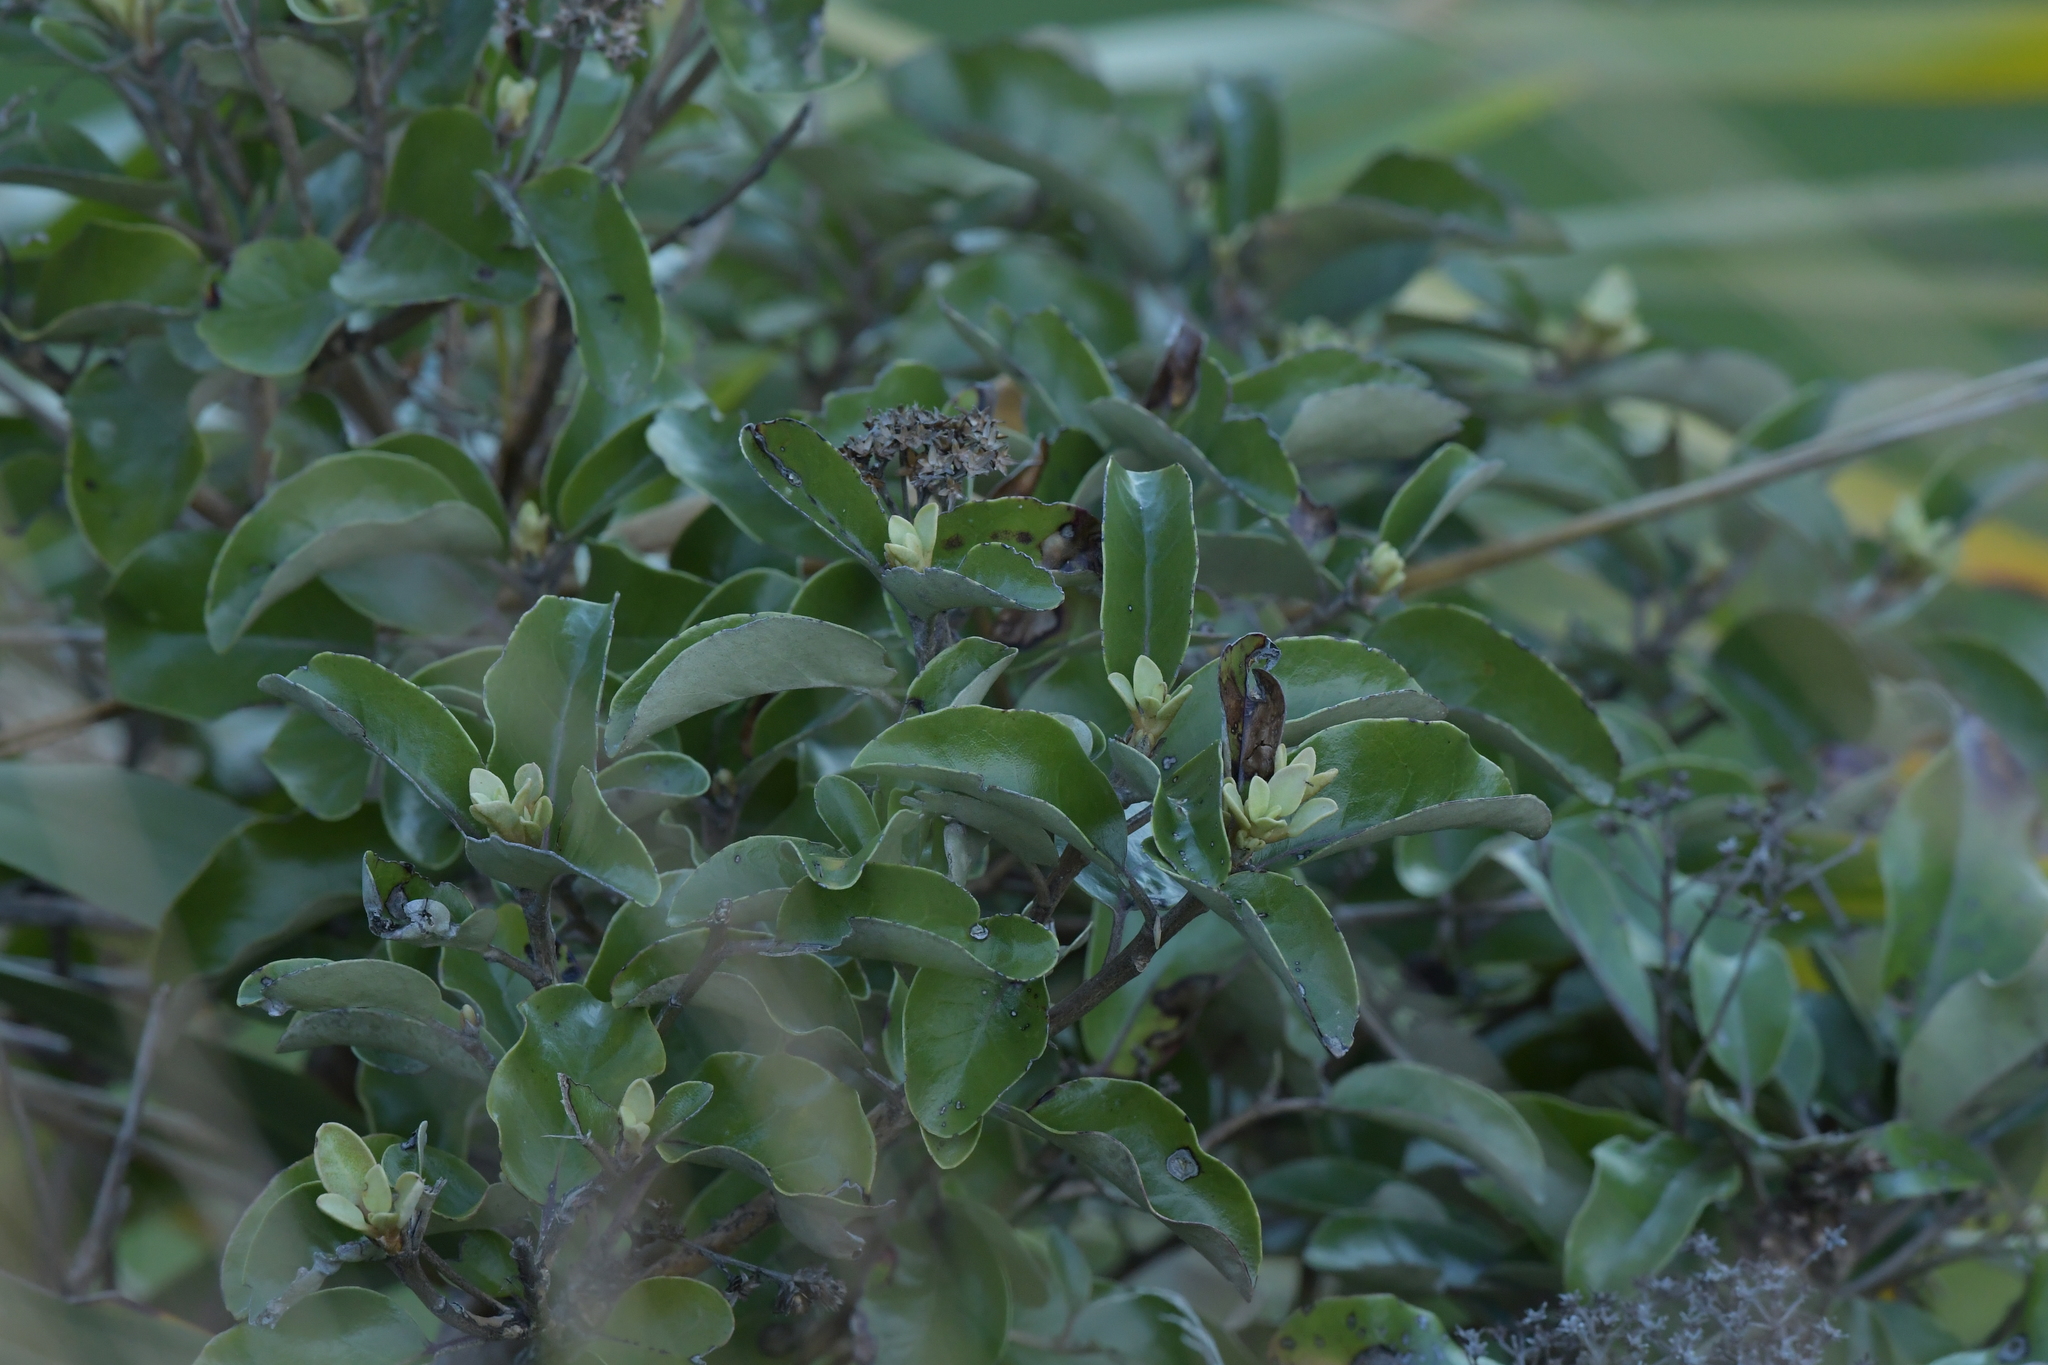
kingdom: Plantae
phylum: Tracheophyta
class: Magnoliopsida
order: Asterales
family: Asteraceae
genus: Olearia
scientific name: Olearia furfuracea
